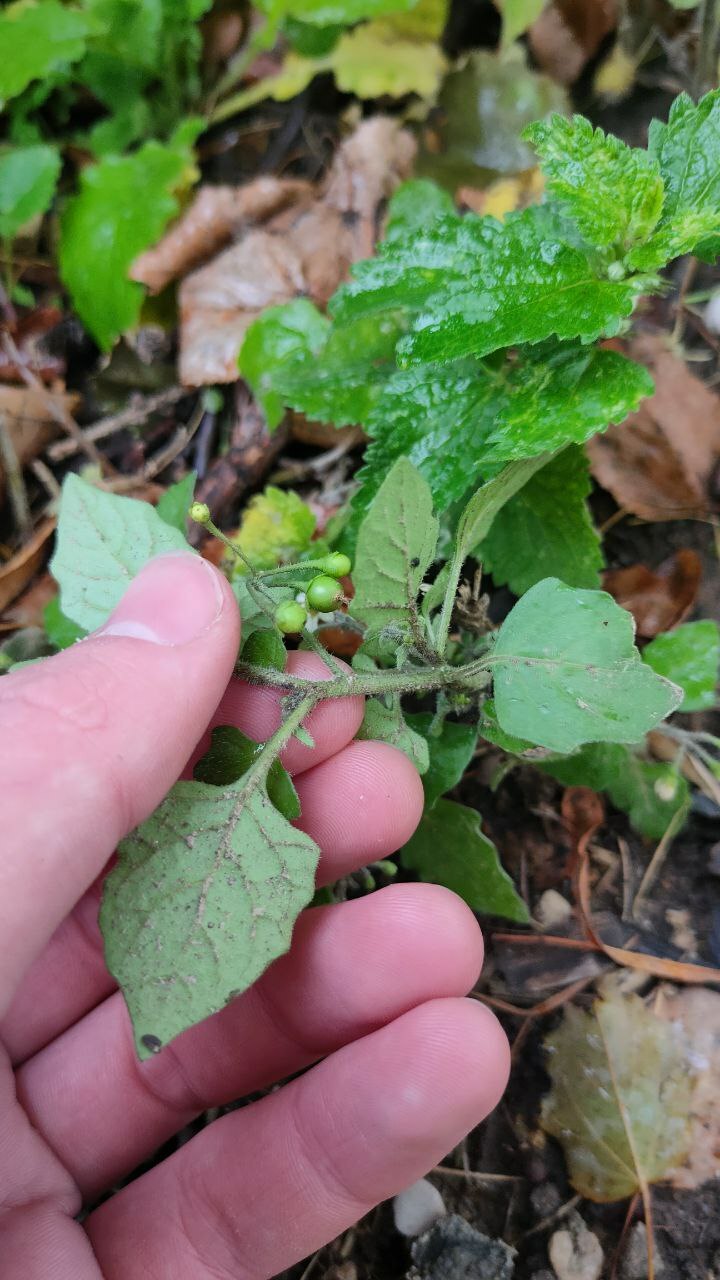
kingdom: Plantae
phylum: Tracheophyta
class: Magnoliopsida
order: Solanales
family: Solanaceae
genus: Solanum
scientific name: Solanum nigrum
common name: Black nightshade
